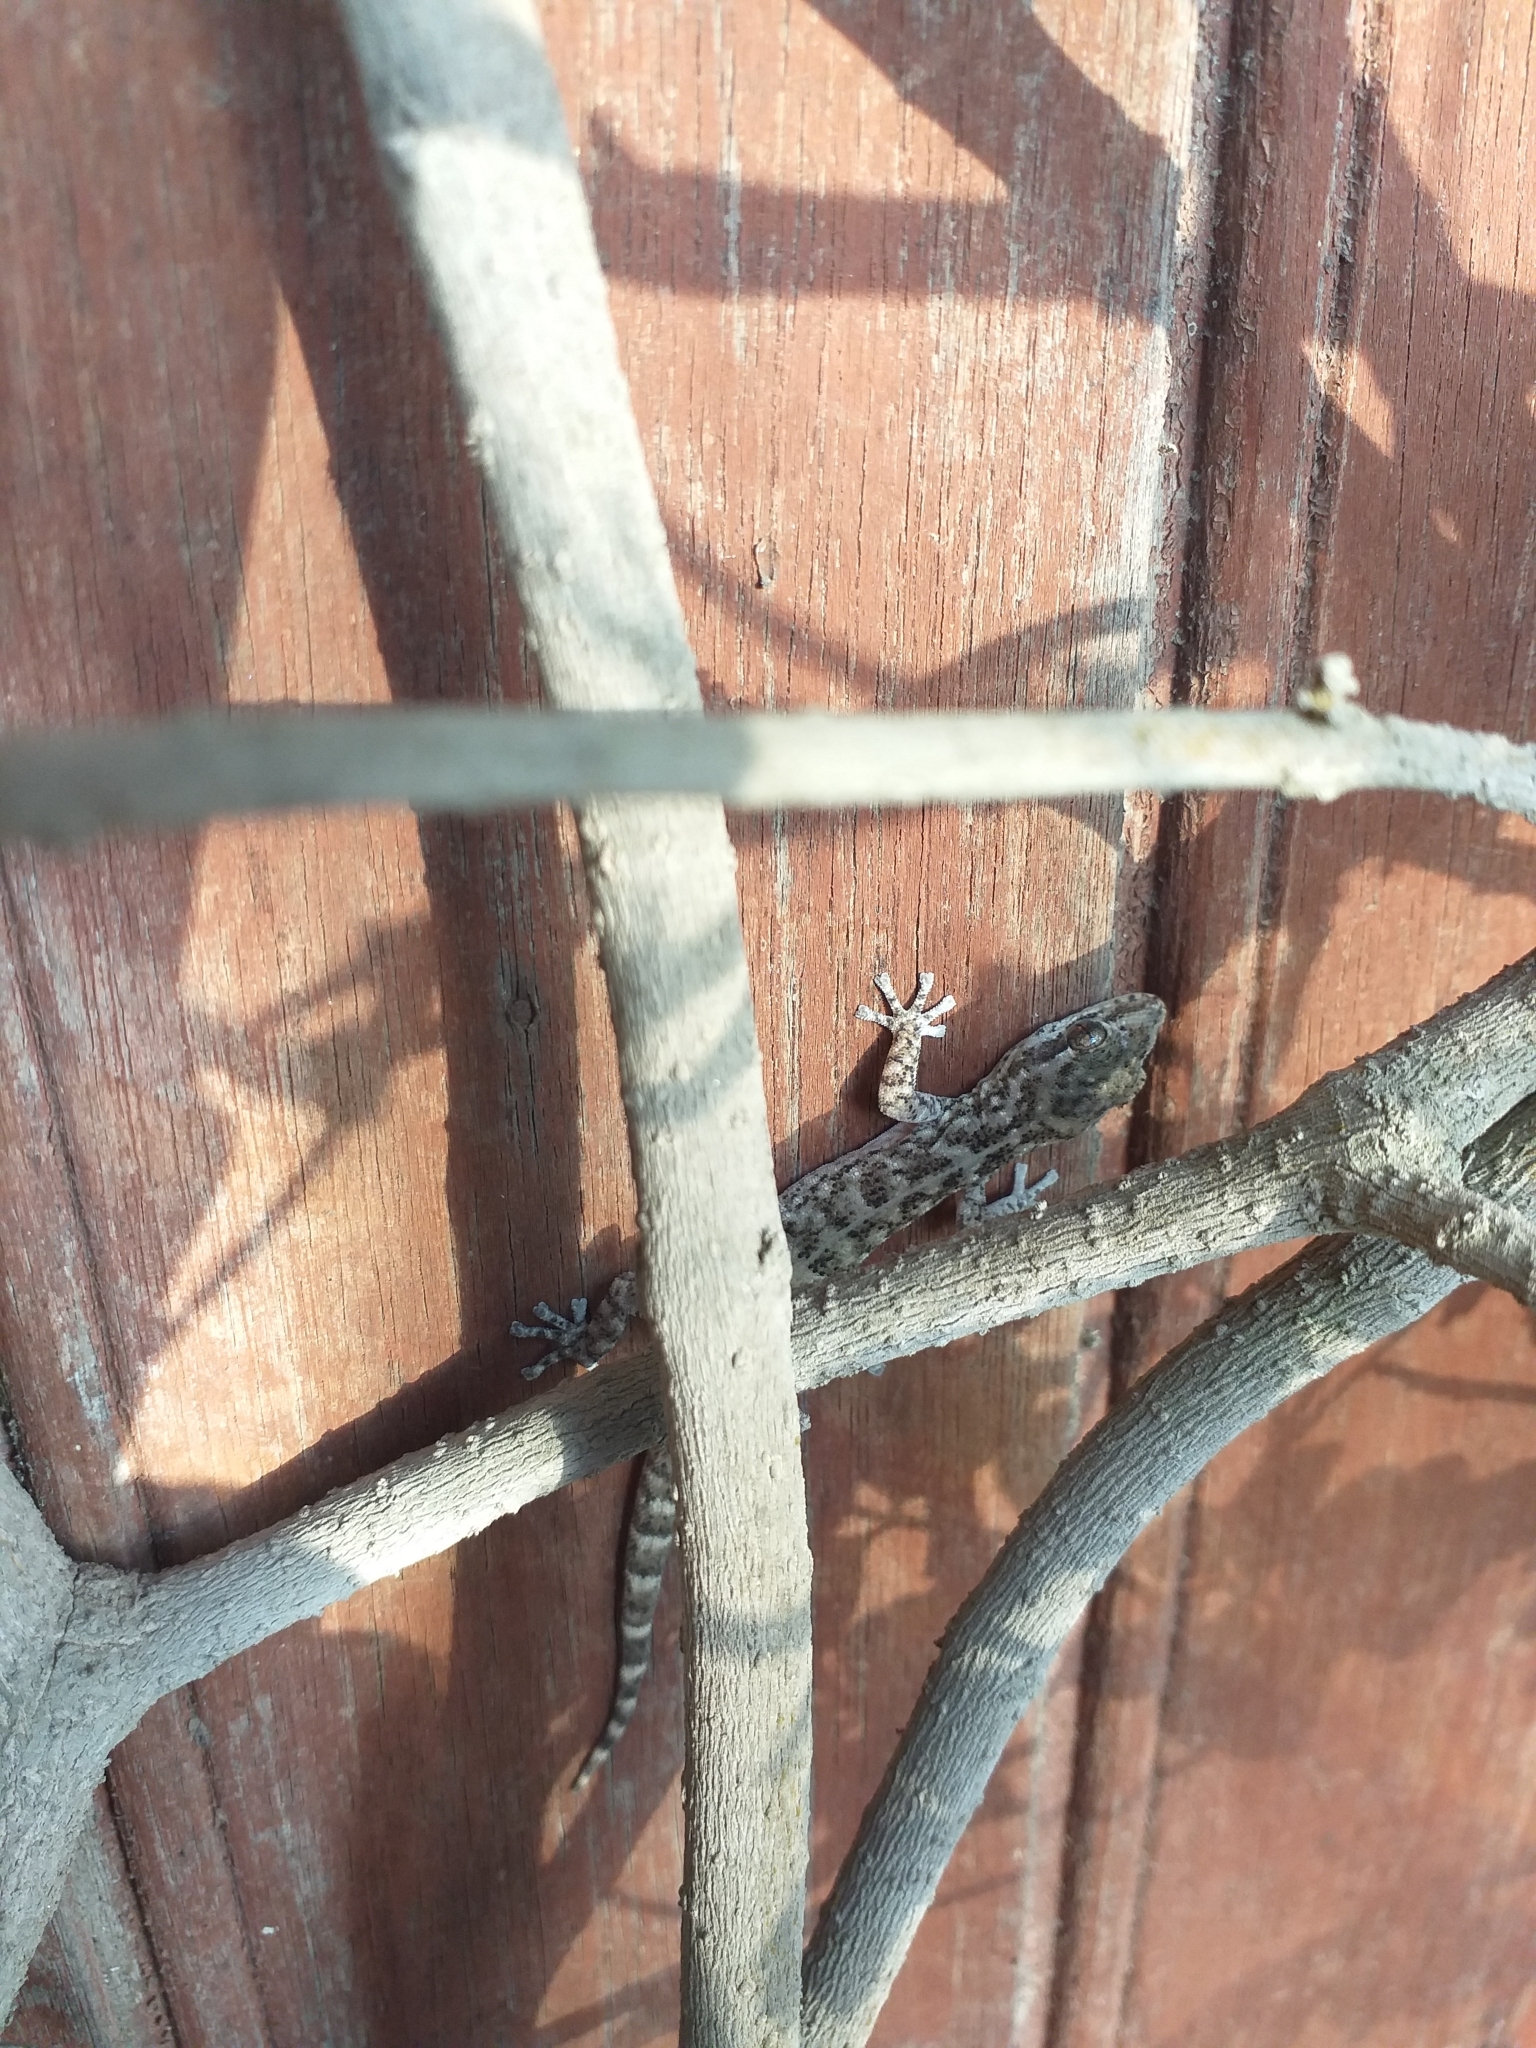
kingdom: Animalia
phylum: Chordata
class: Squamata
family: Phyllodactylidae
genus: Phyllodactylus
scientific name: Phyllodactylus lepidopygus
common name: Western leaf-toed gecko
